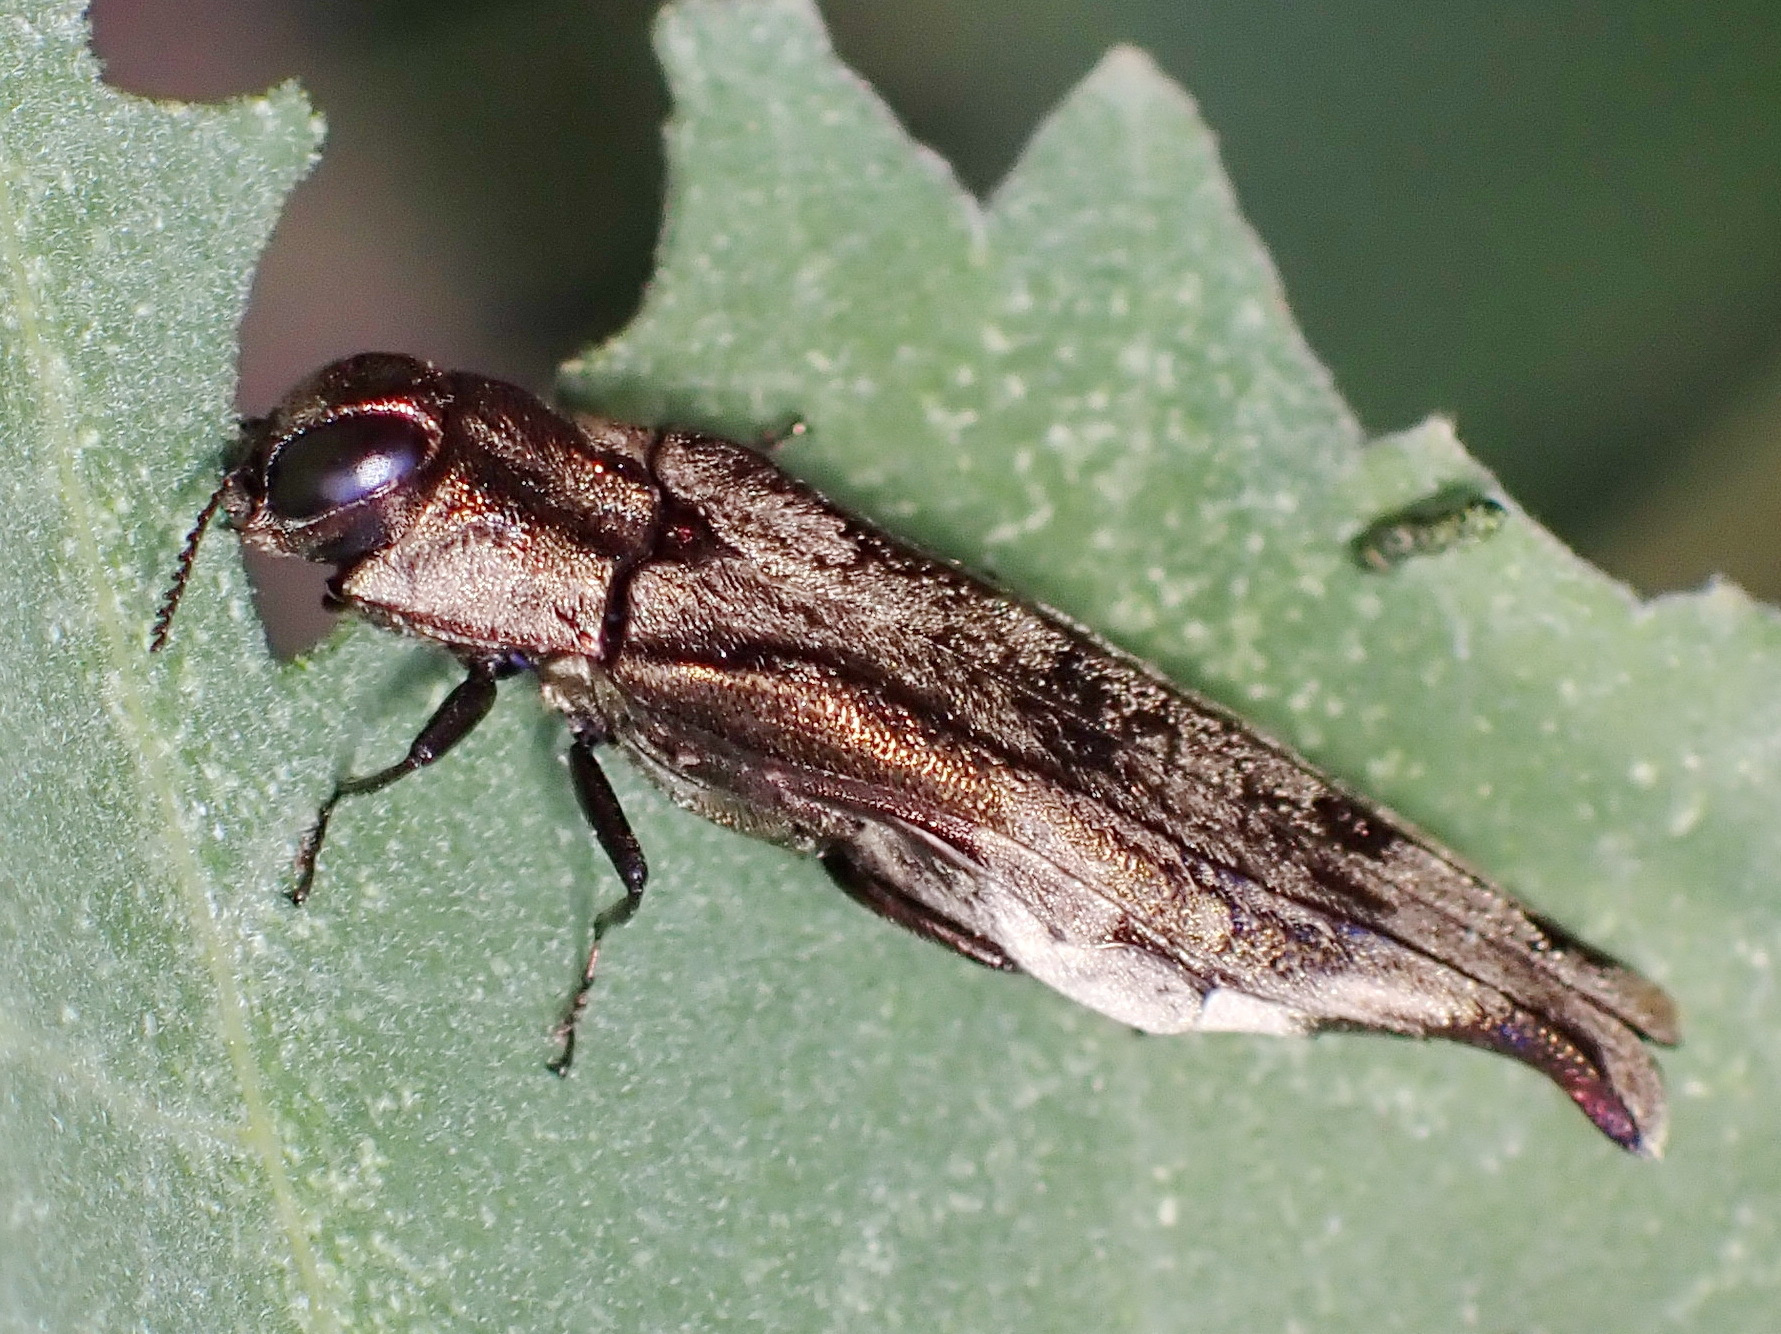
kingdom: Animalia
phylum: Arthropoda
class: Insecta
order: Coleoptera
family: Buprestidae
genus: Agrilus
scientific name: Agrilus langei
